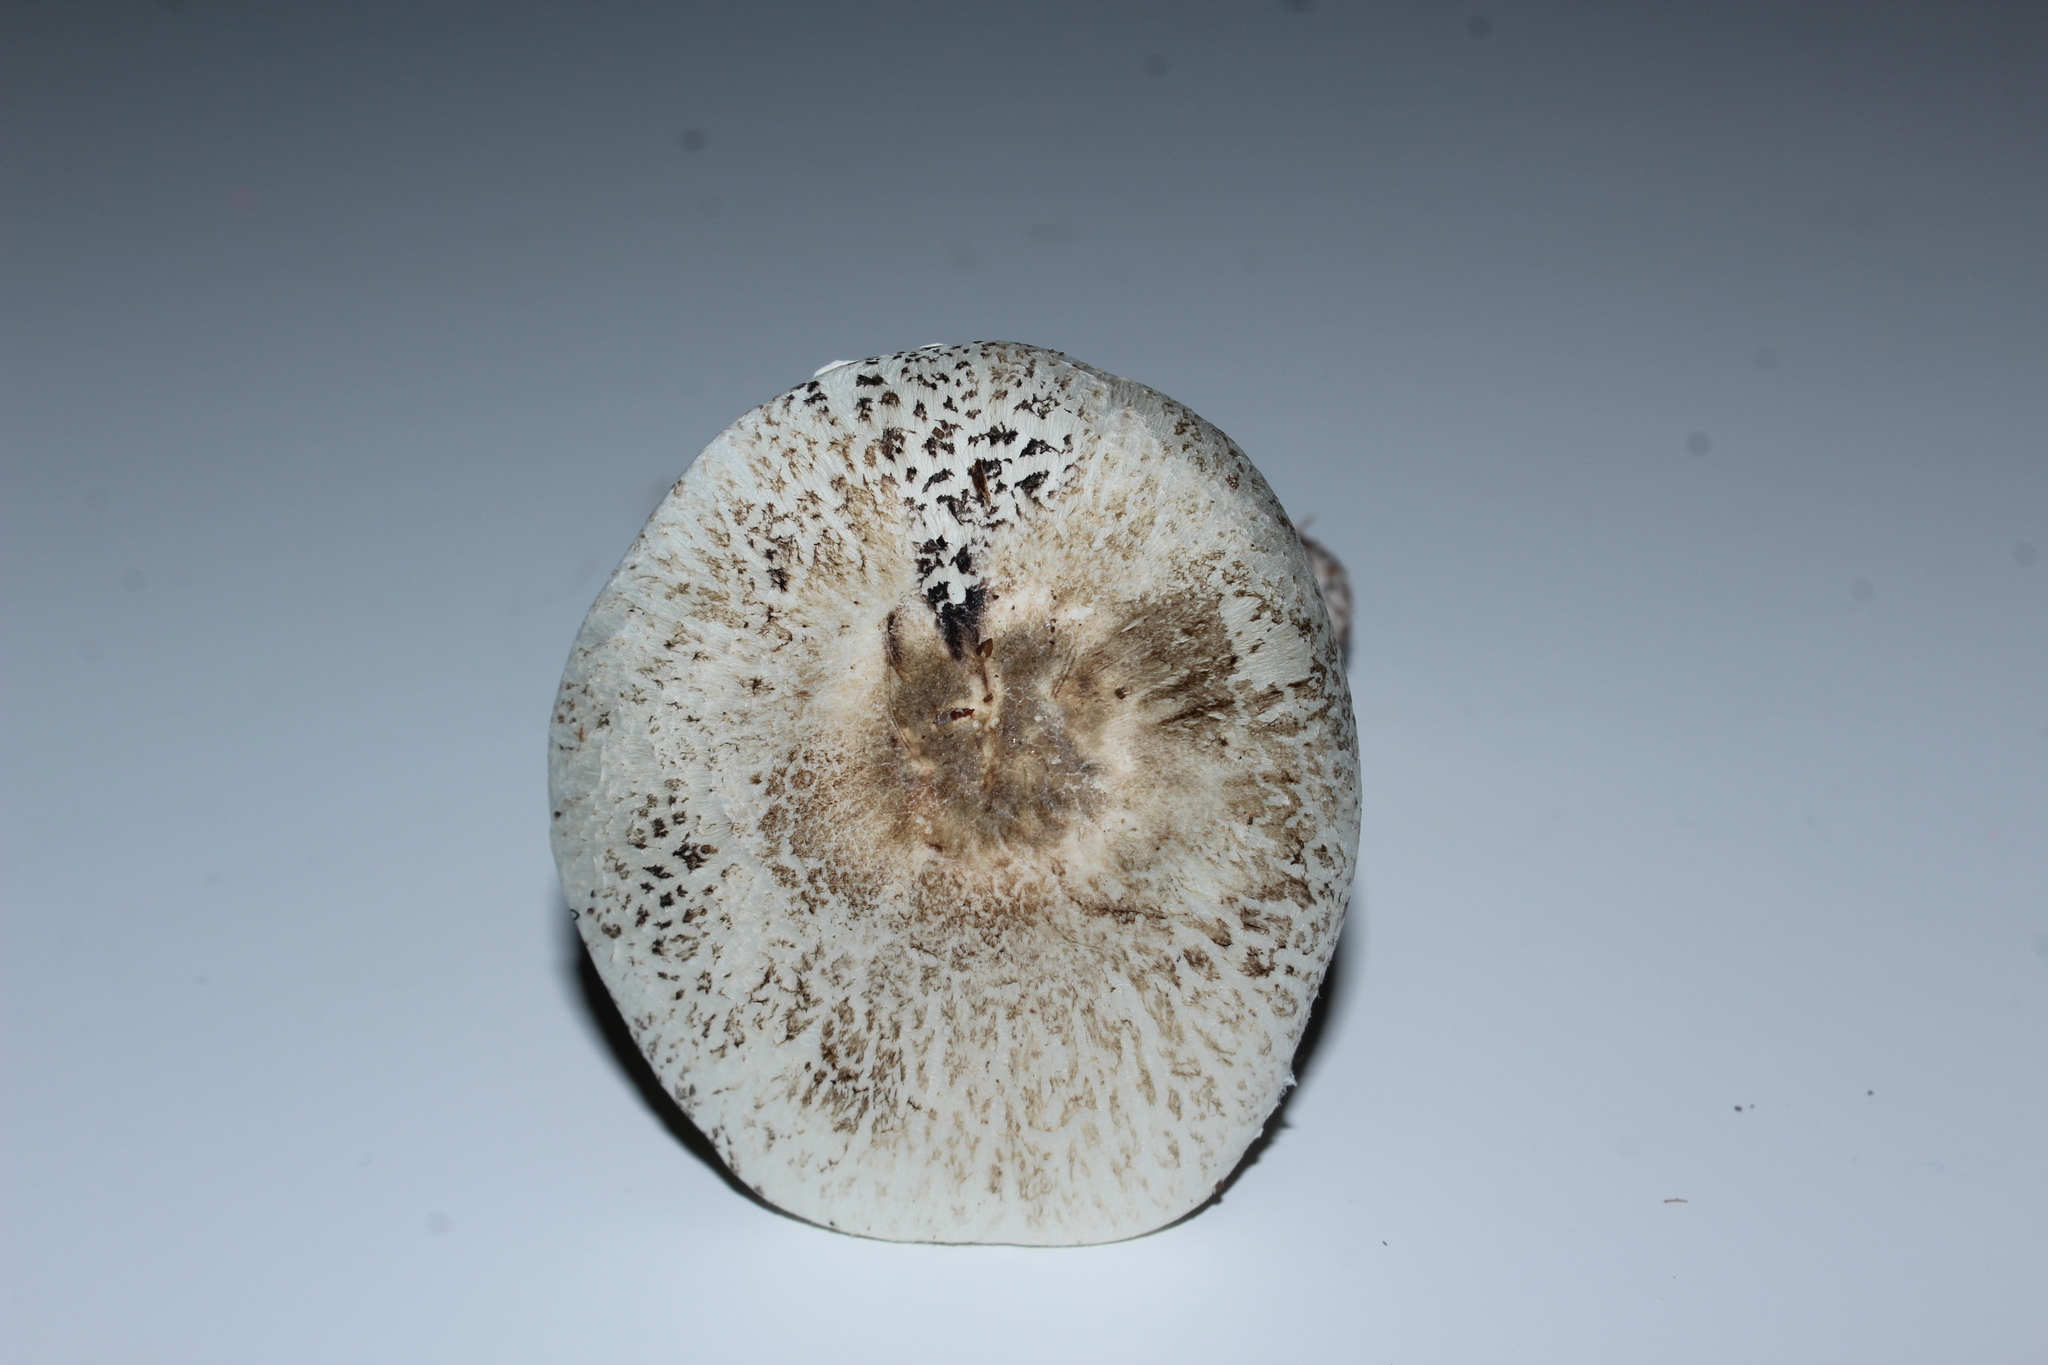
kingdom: Fungi
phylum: Basidiomycota
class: Agaricomycetes
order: Agaricales
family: Agaricaceae
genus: Leucoagaricus
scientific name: Leucoagaricus
